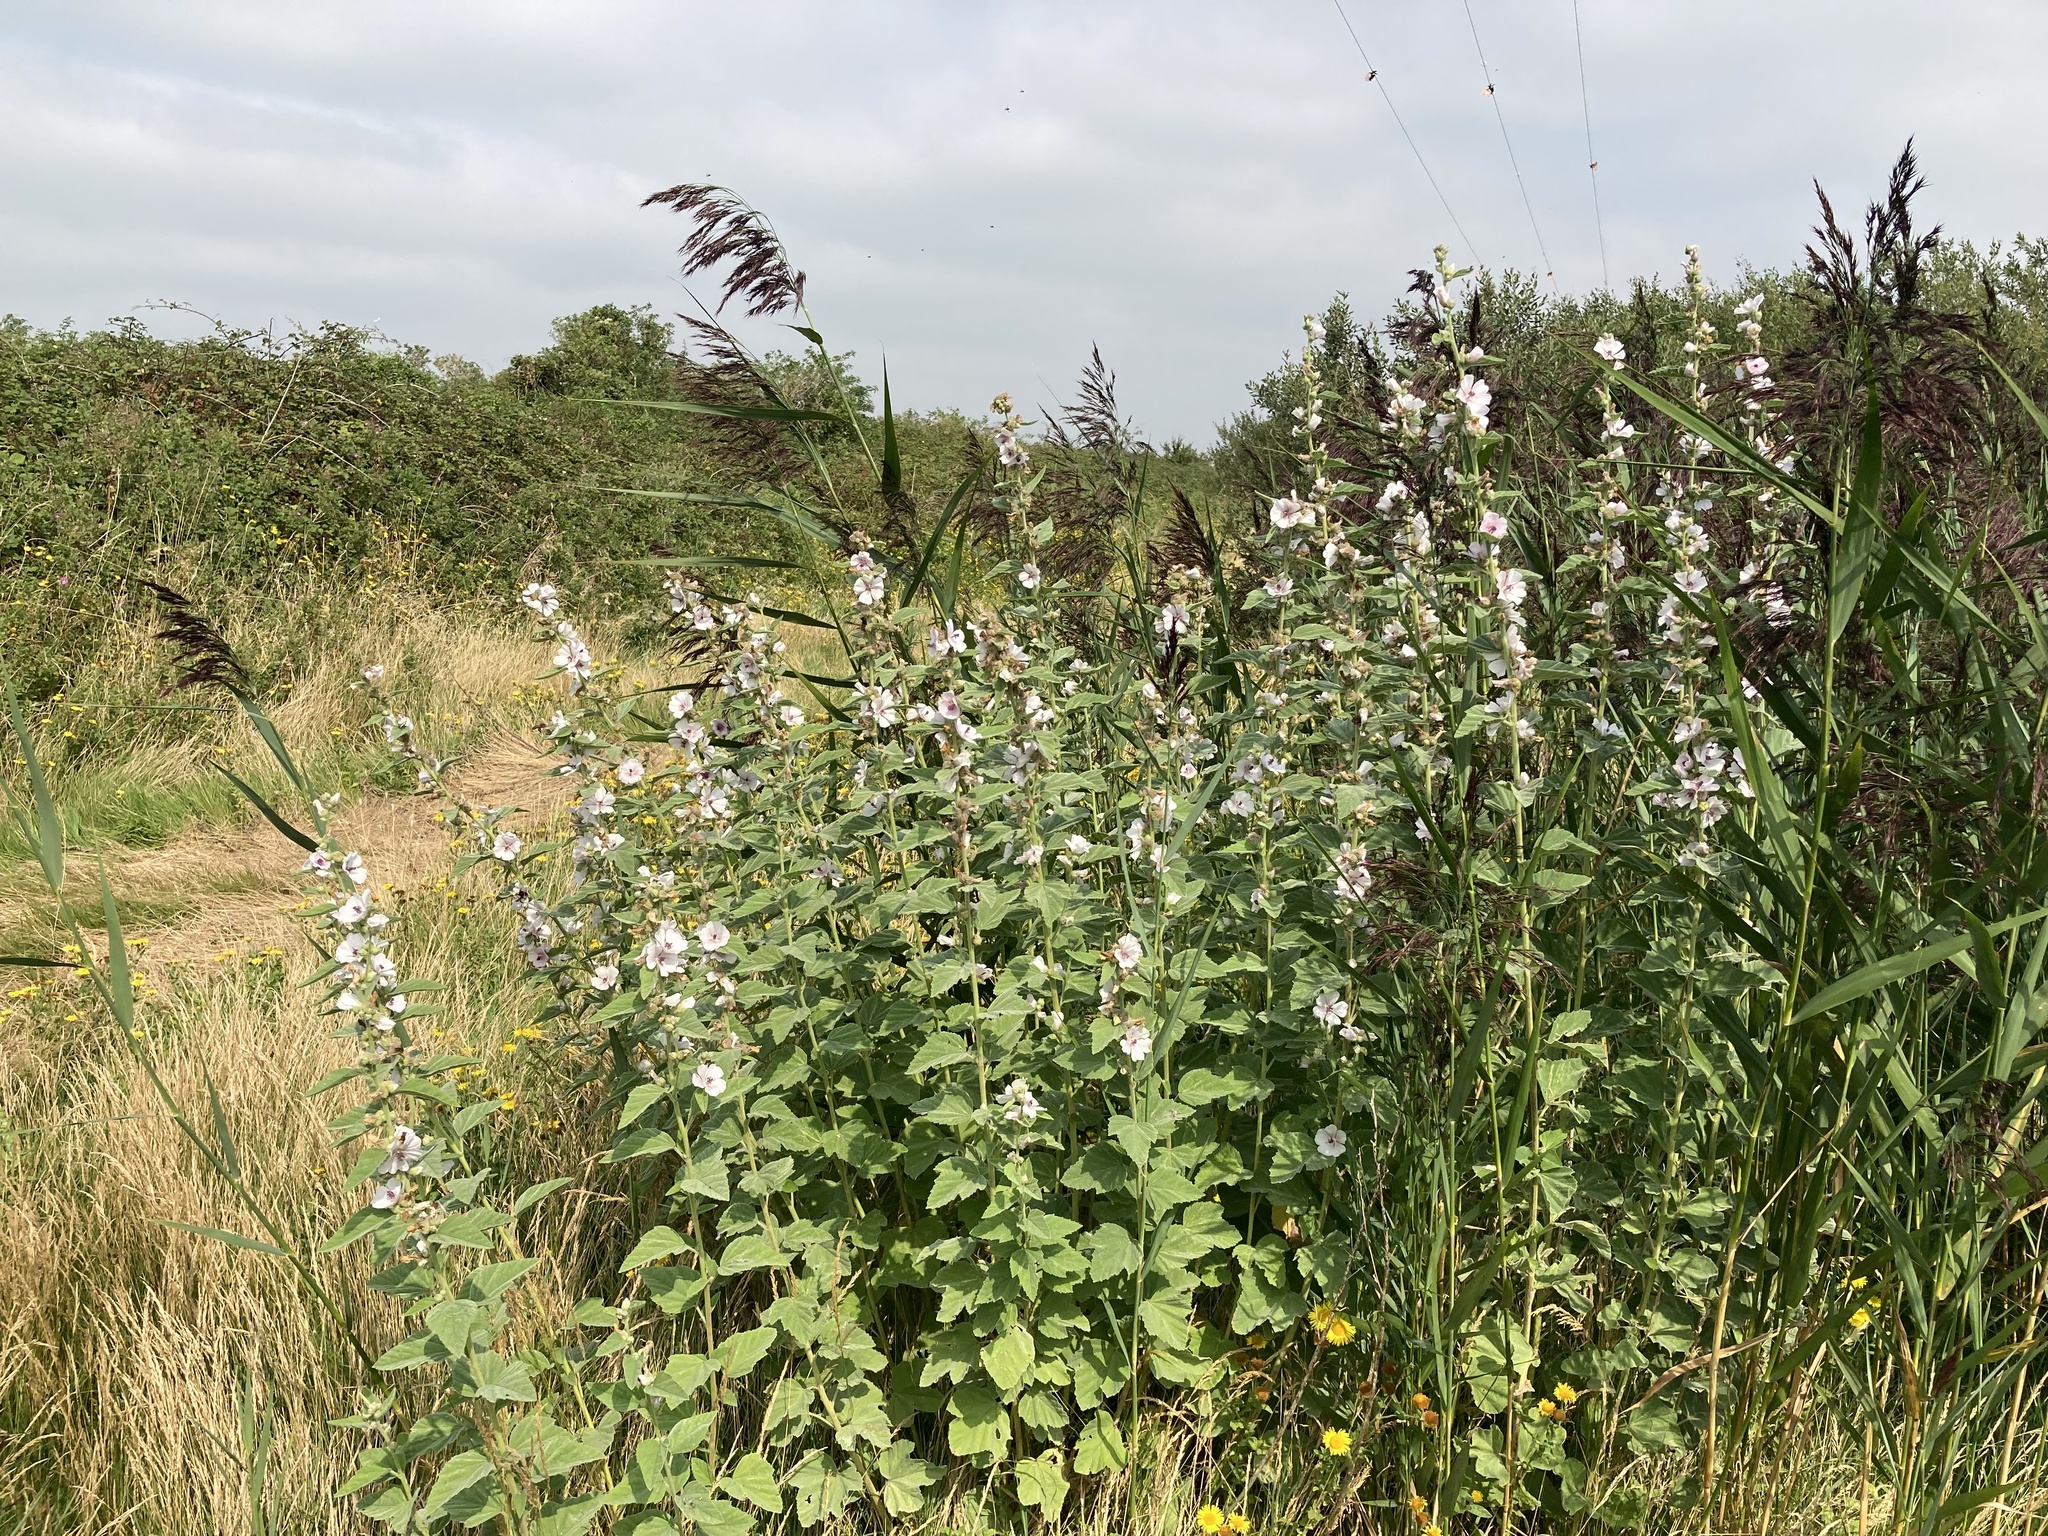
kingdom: Plantae
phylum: Tracheophyta
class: Magnoliopsida
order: Malvales
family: Malvaceae
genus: Althaea
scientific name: Althaea officinalis
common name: Marsh-mallow
